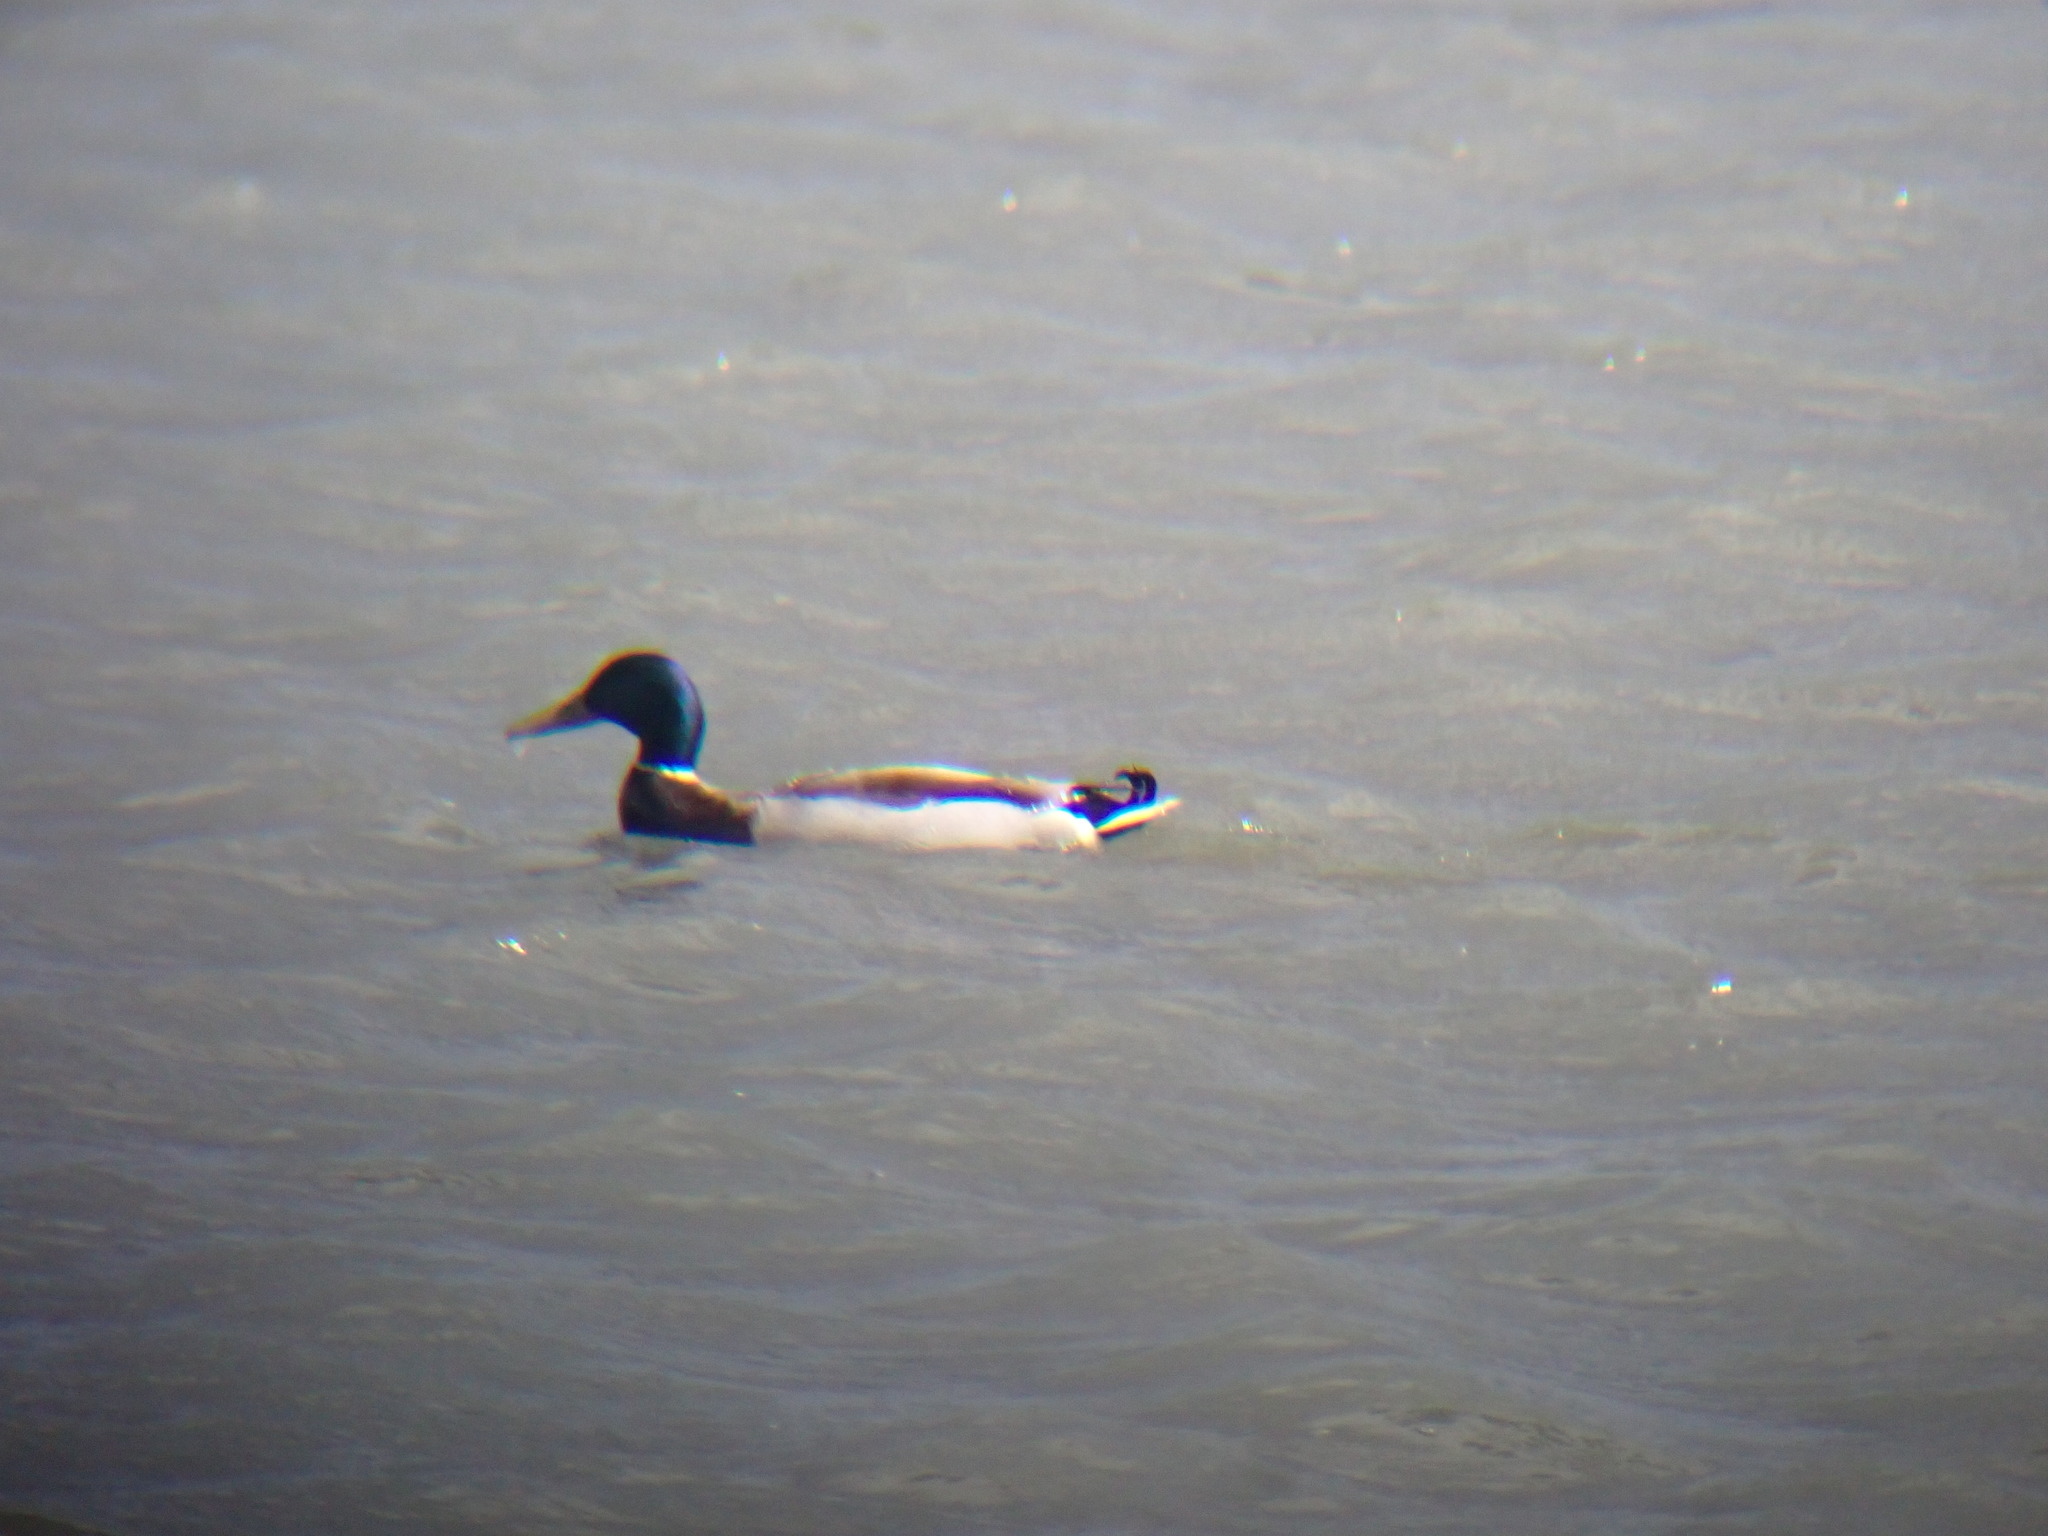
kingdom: Animalia
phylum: Chordata
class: Aves
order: Anseriformes
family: Anatidae
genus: Anas
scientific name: Anas platyrhynchos
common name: Mallard
